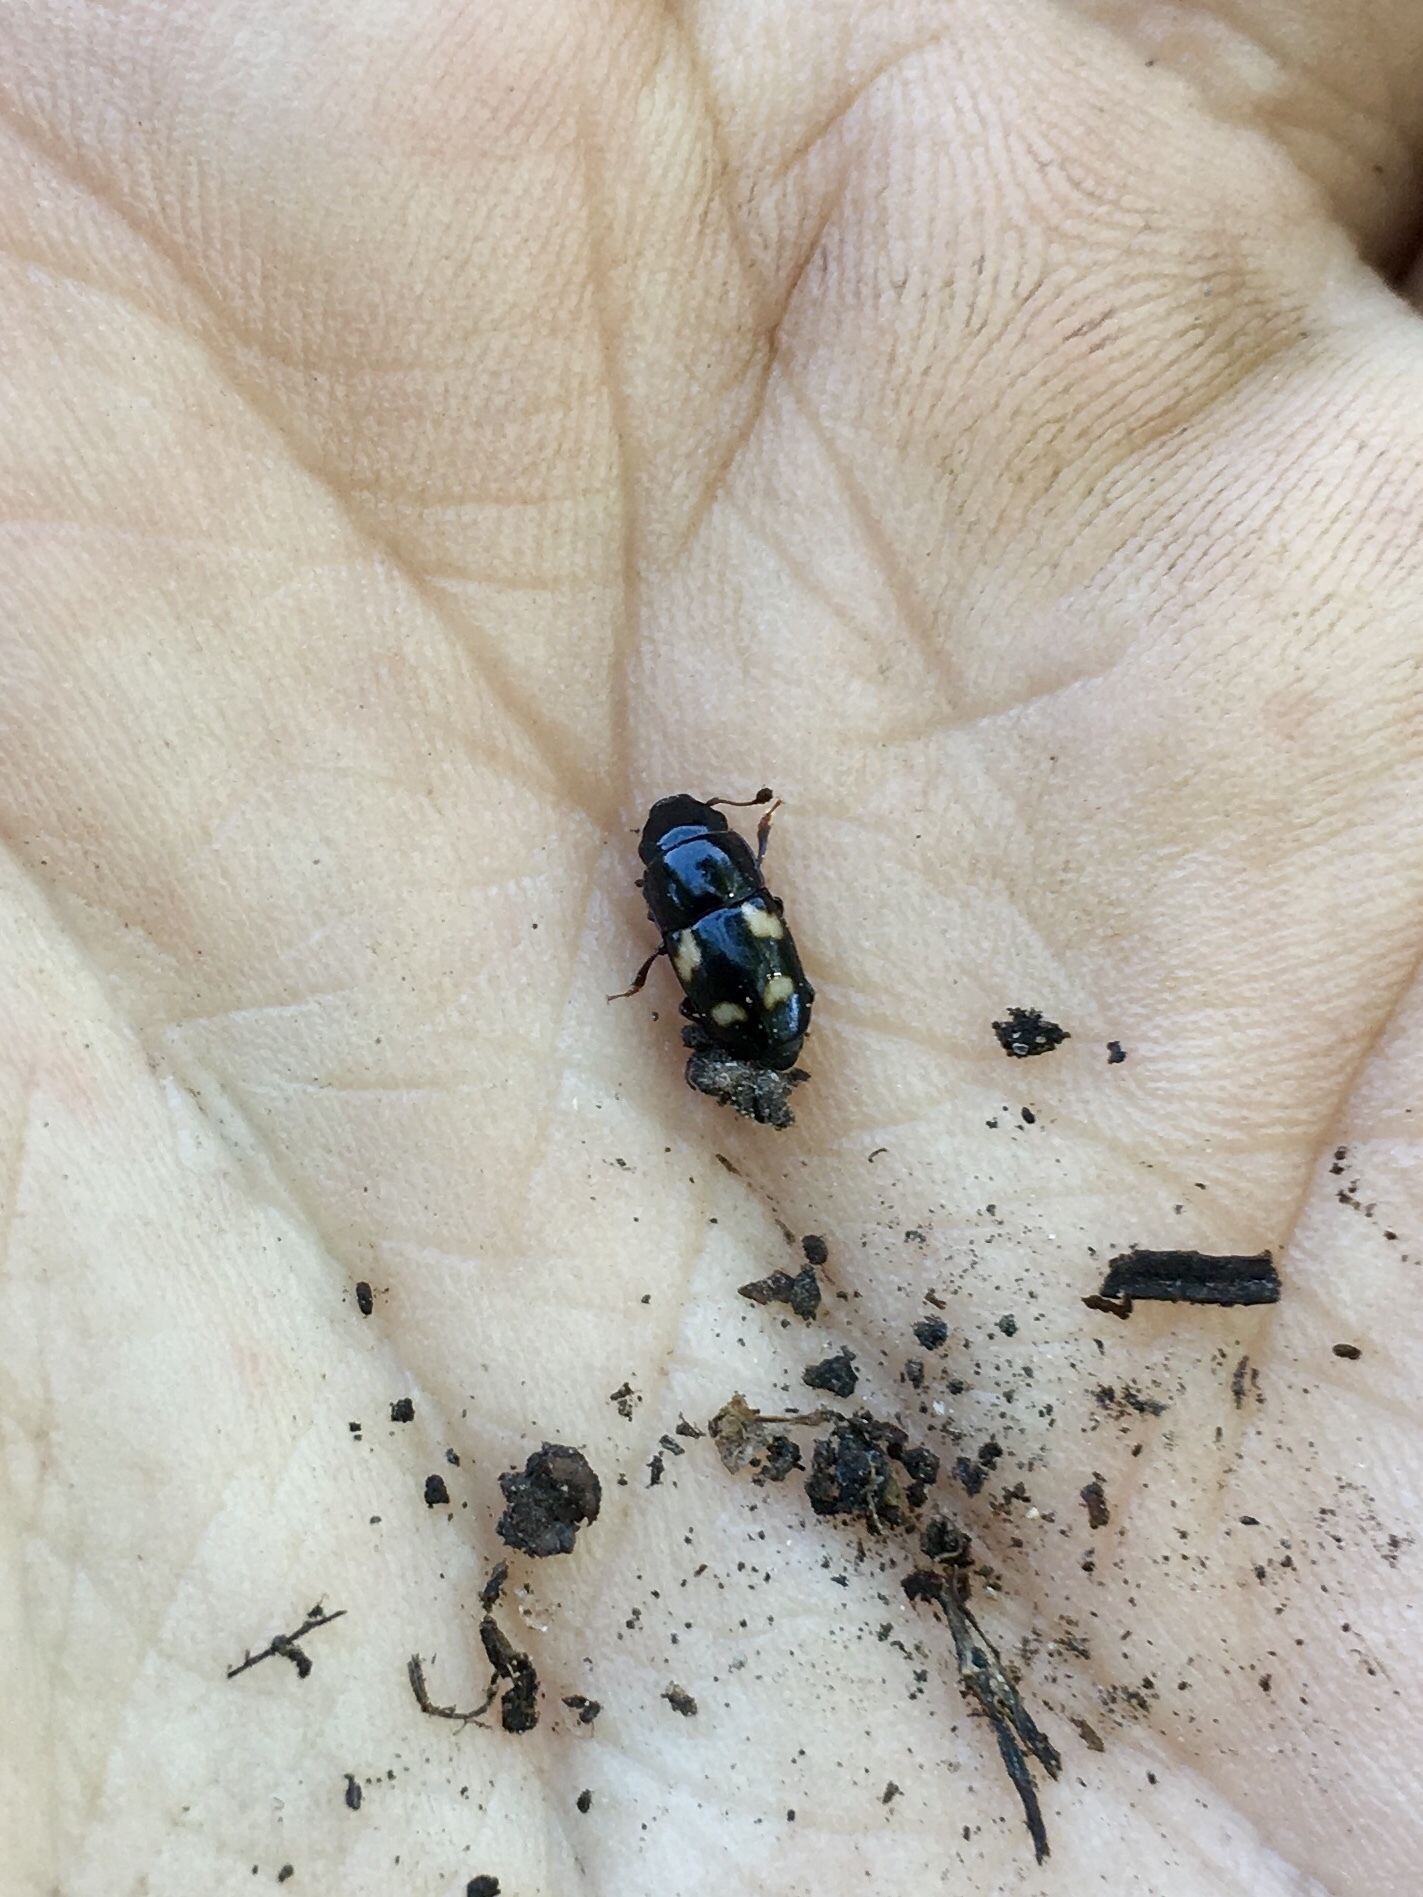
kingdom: Animalia
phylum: Arthropoda
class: Insecta
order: Coleoptera
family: Nitidulidae
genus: Glischrochilus
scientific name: Glischrochilus quadrisignatus
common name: Picnic beetle
